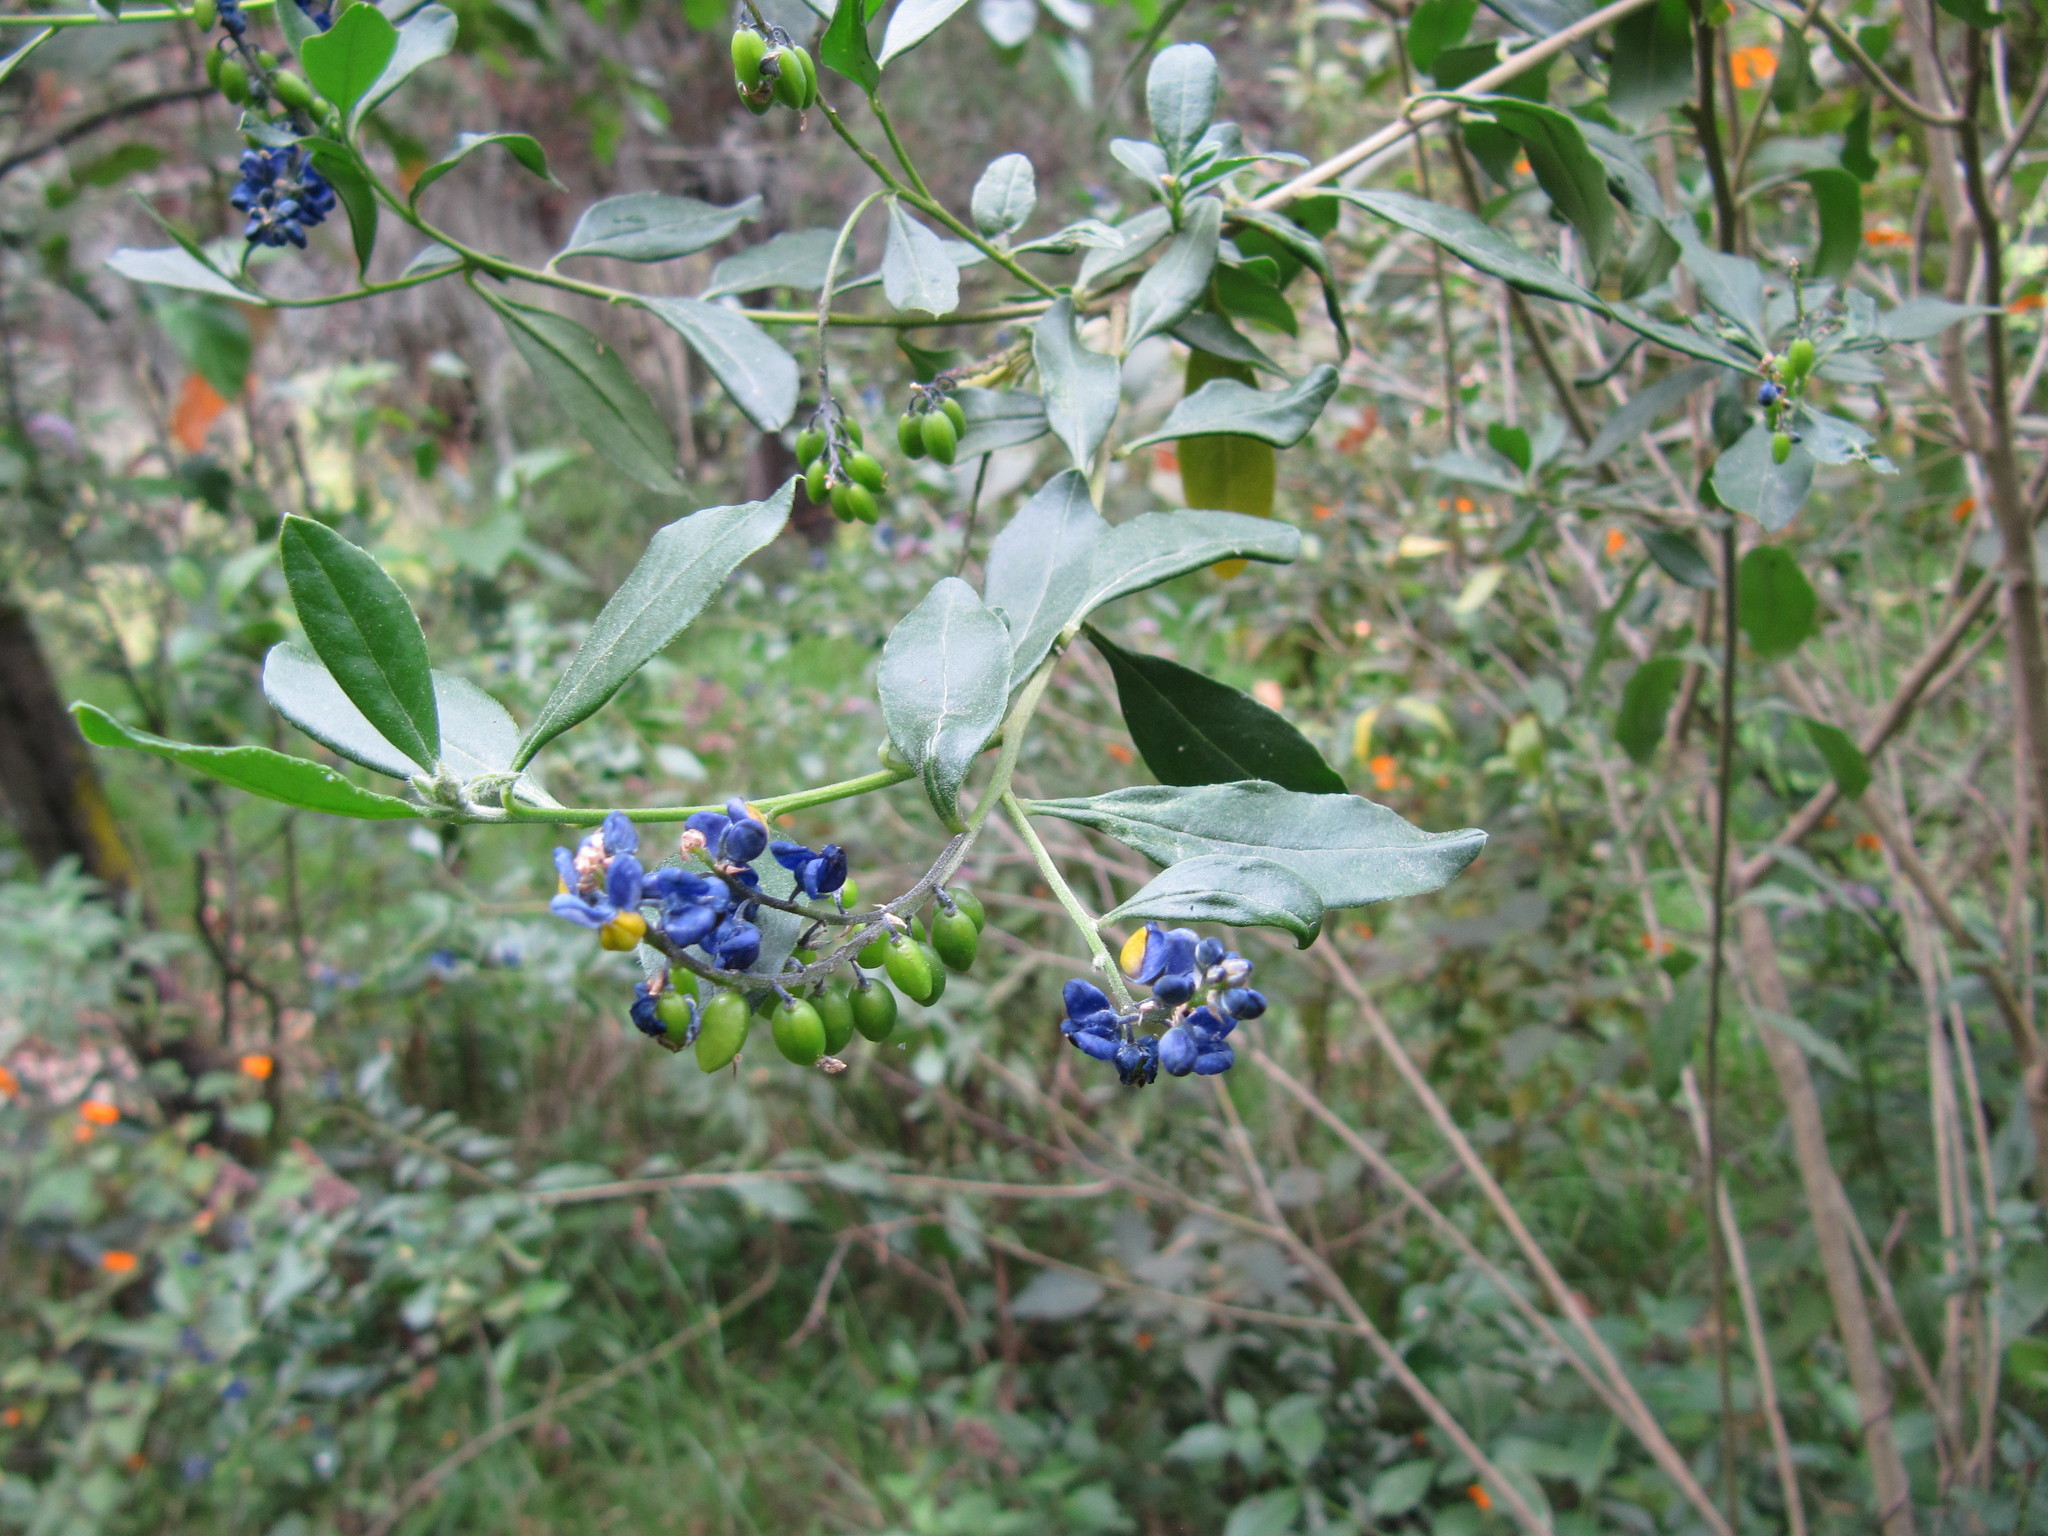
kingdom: Plantae
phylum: Tracheophyta
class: Magnoliopsida
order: Fabales
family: Polygalaceae
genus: Monnina
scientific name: Monnina aestuans
